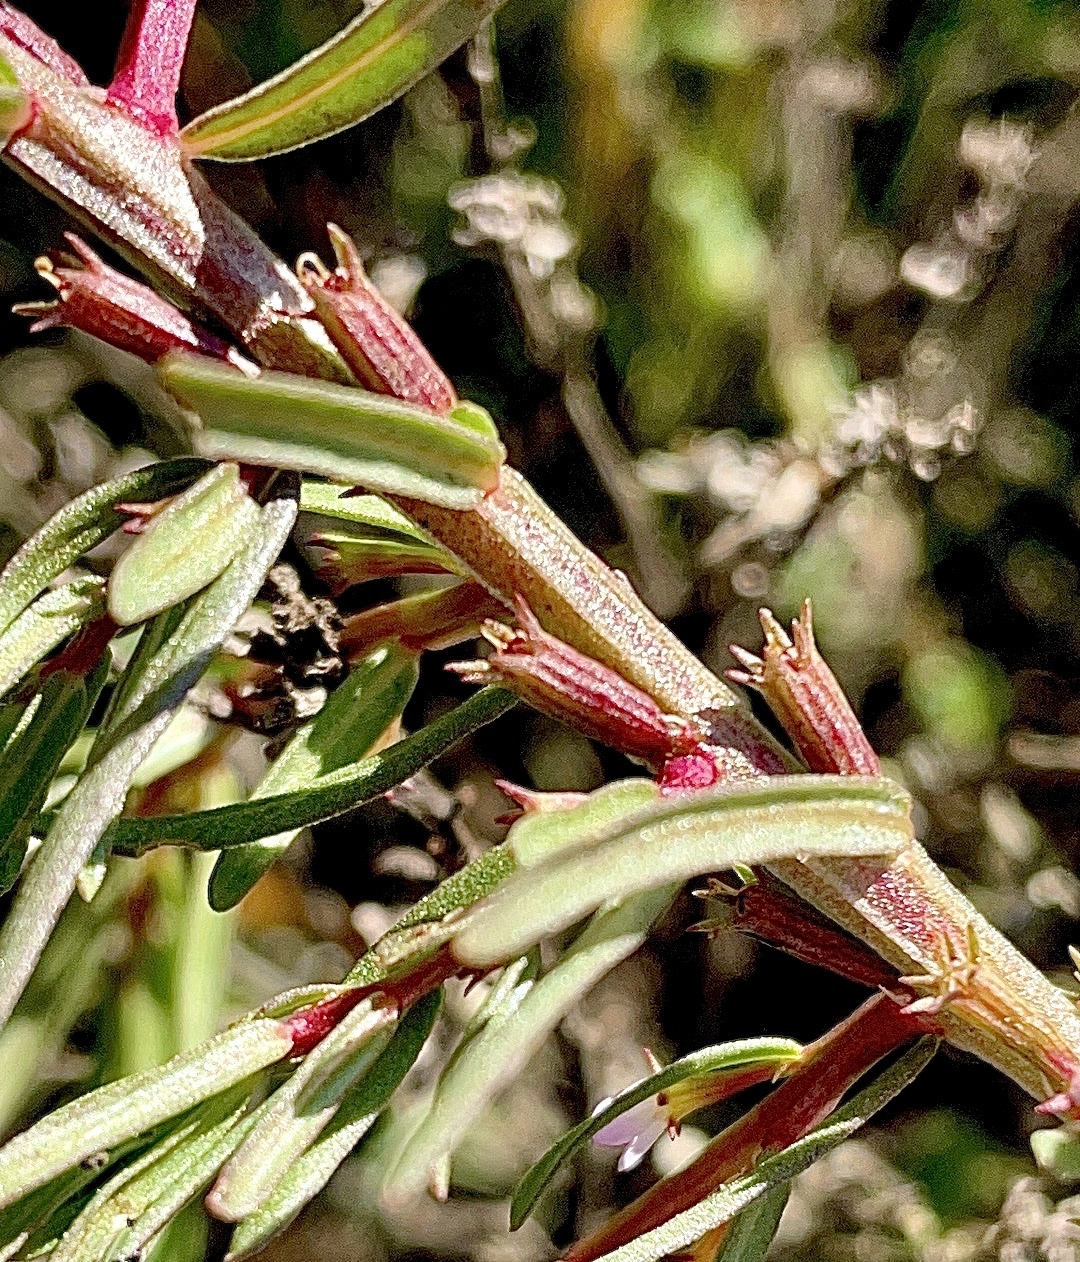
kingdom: Plantae
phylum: Tracheophyta
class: Magnoliopsida
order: Myrtales
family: Lythraceae
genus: Lythrum
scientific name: Lythrum hyssopifolia
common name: Grass-poly
